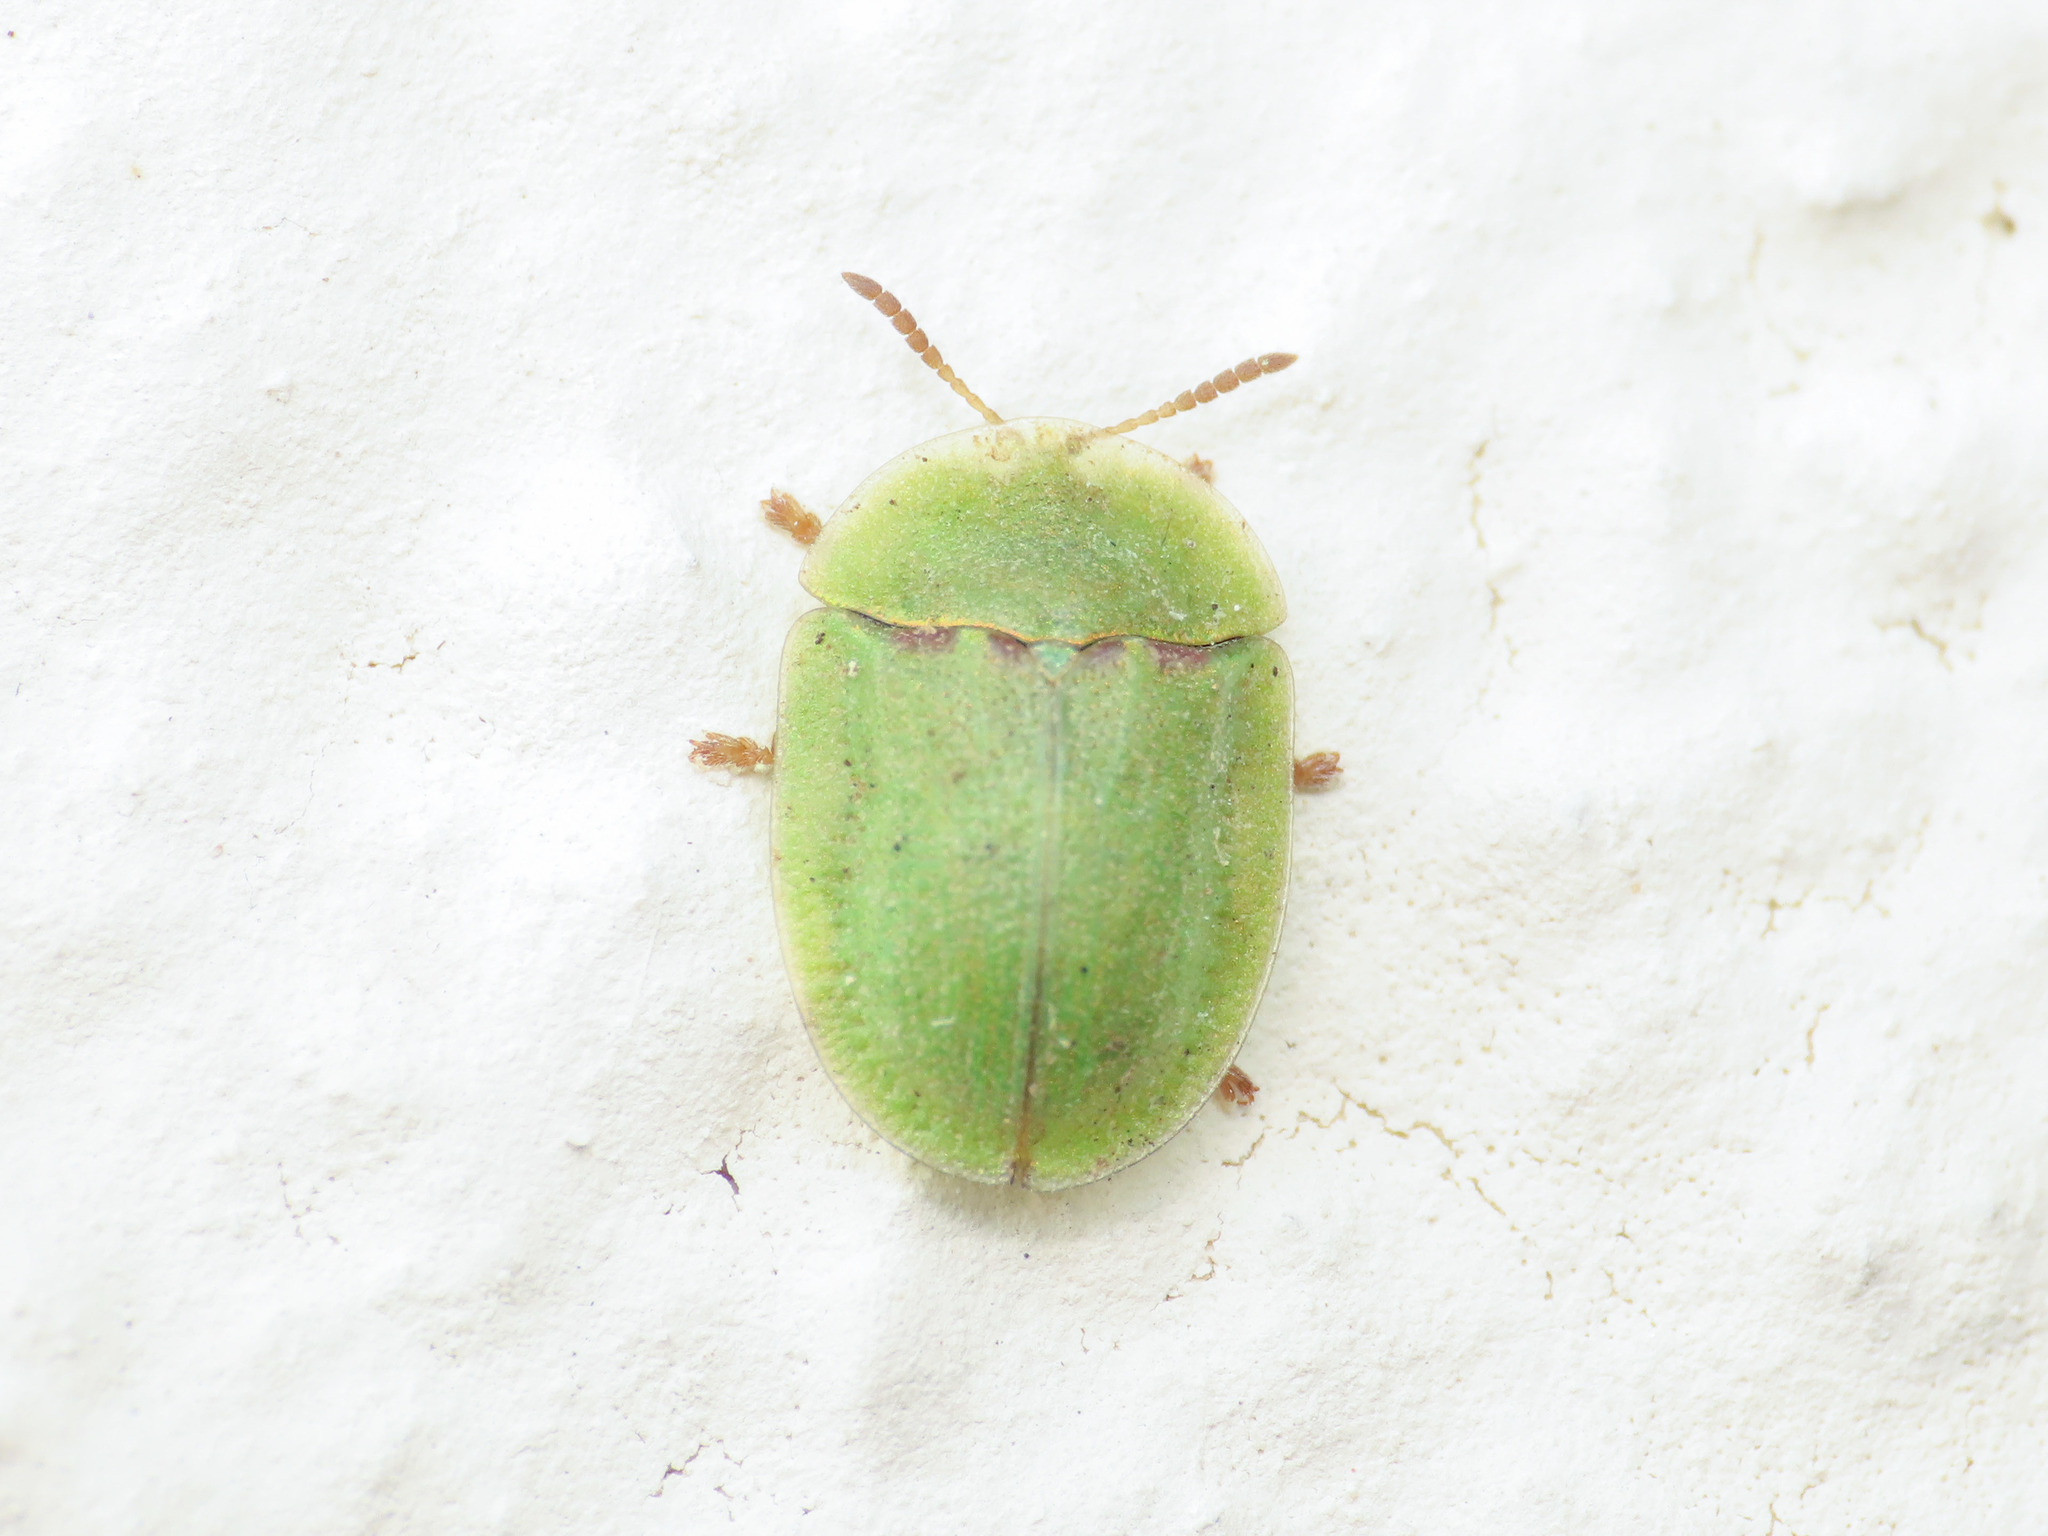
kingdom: Animalia
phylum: Arthropoda
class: Insecta
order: Coleoptera
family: Chrysomelidae
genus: Cassida
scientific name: Cassida inquinata
